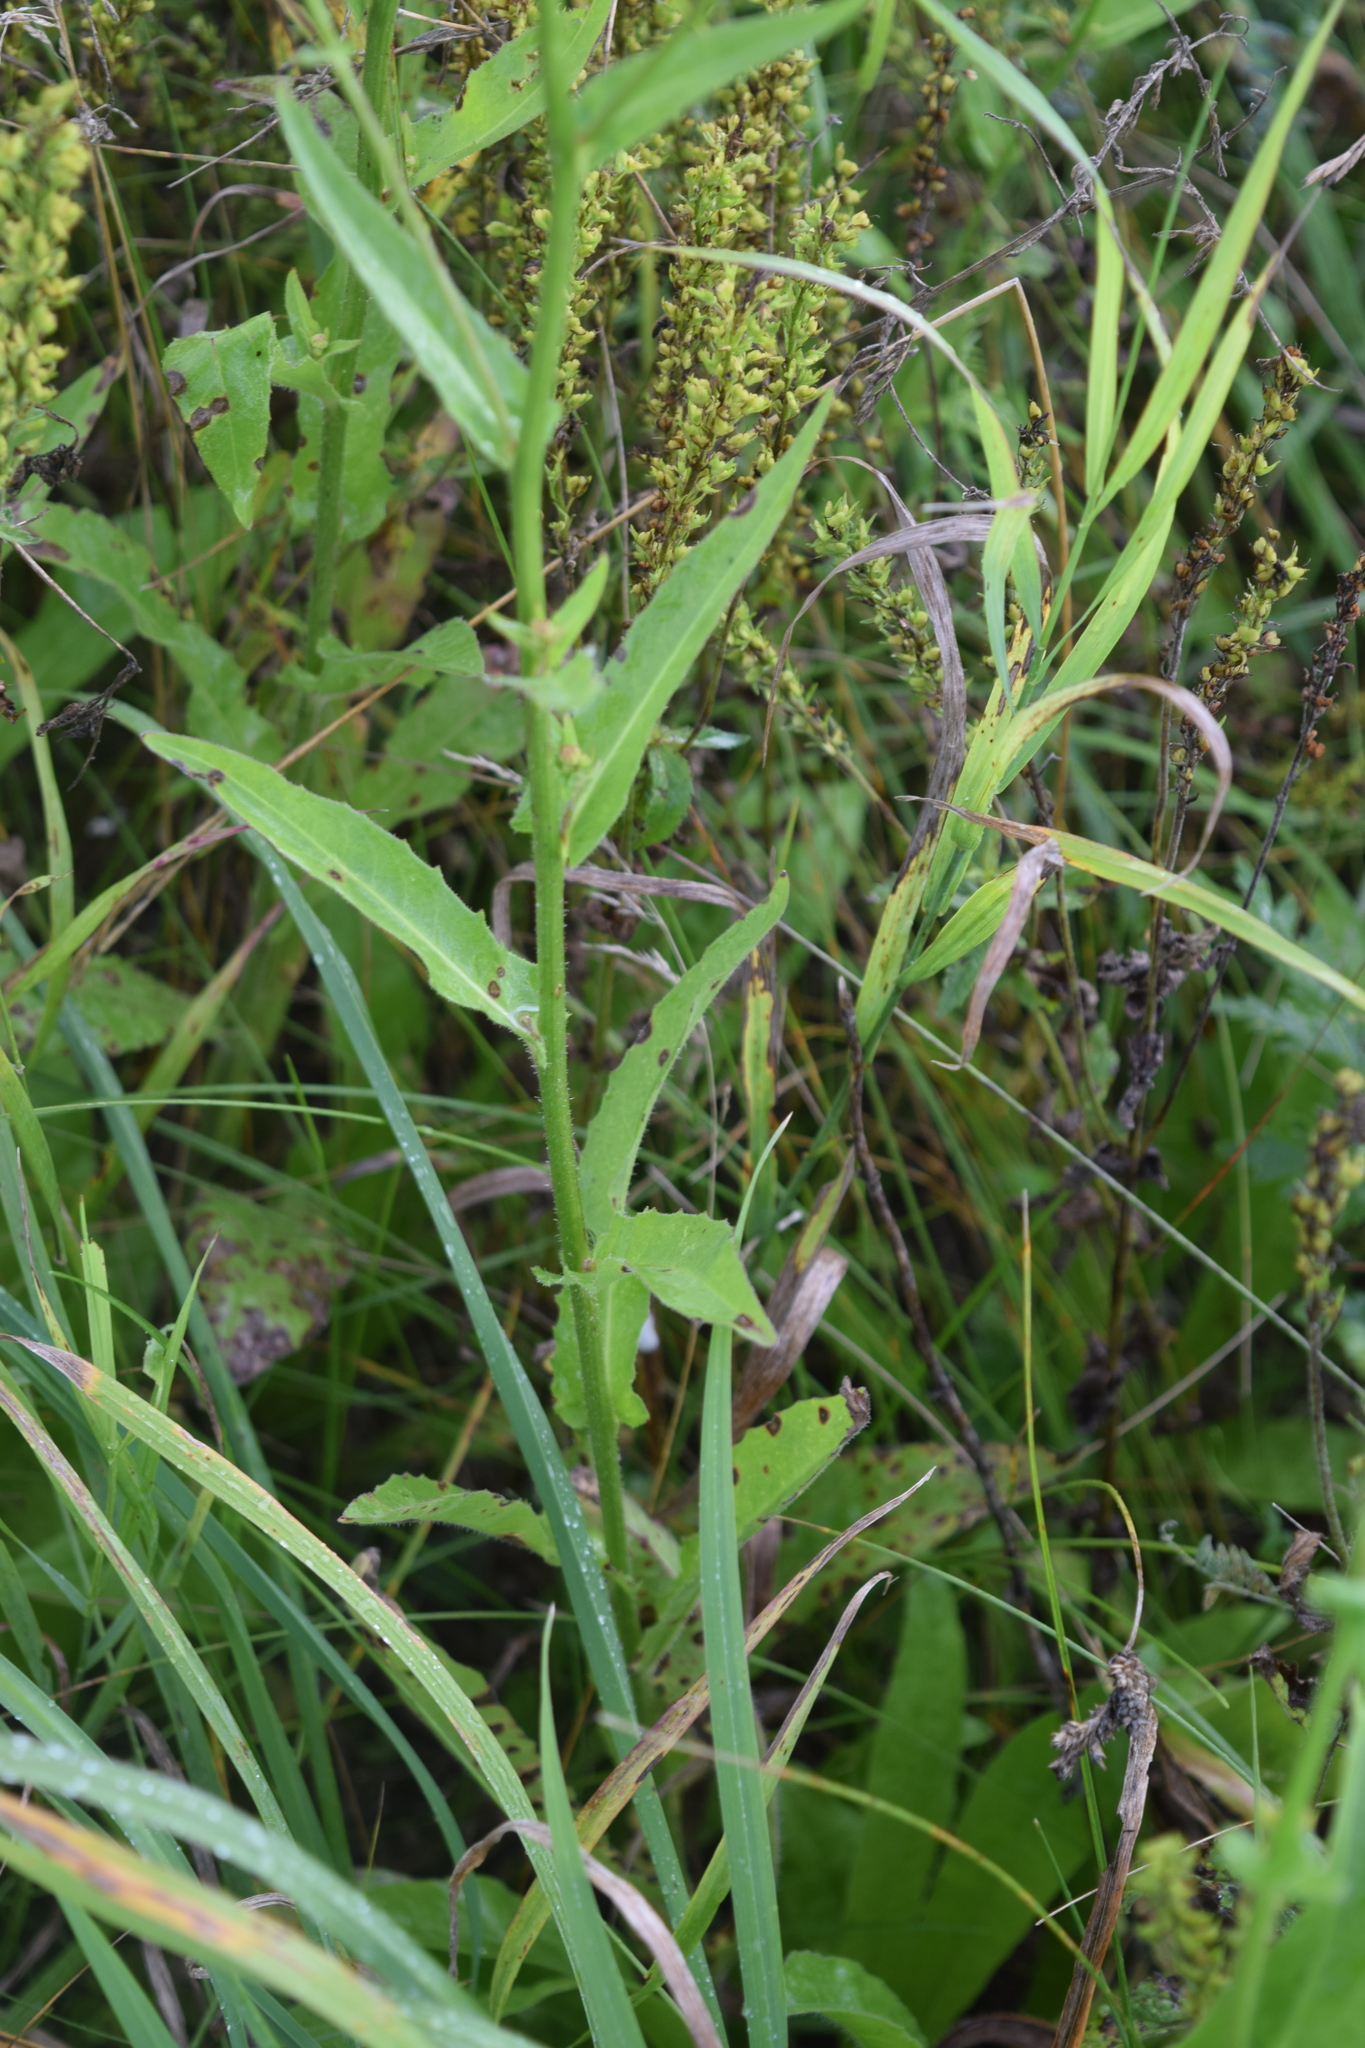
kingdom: Plantae
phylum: Tracheophyta
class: Magnoliopsida
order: Asterales
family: Asteraceae
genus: Picris
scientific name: Picris hieracioides
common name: Hawkweed oxtongue
